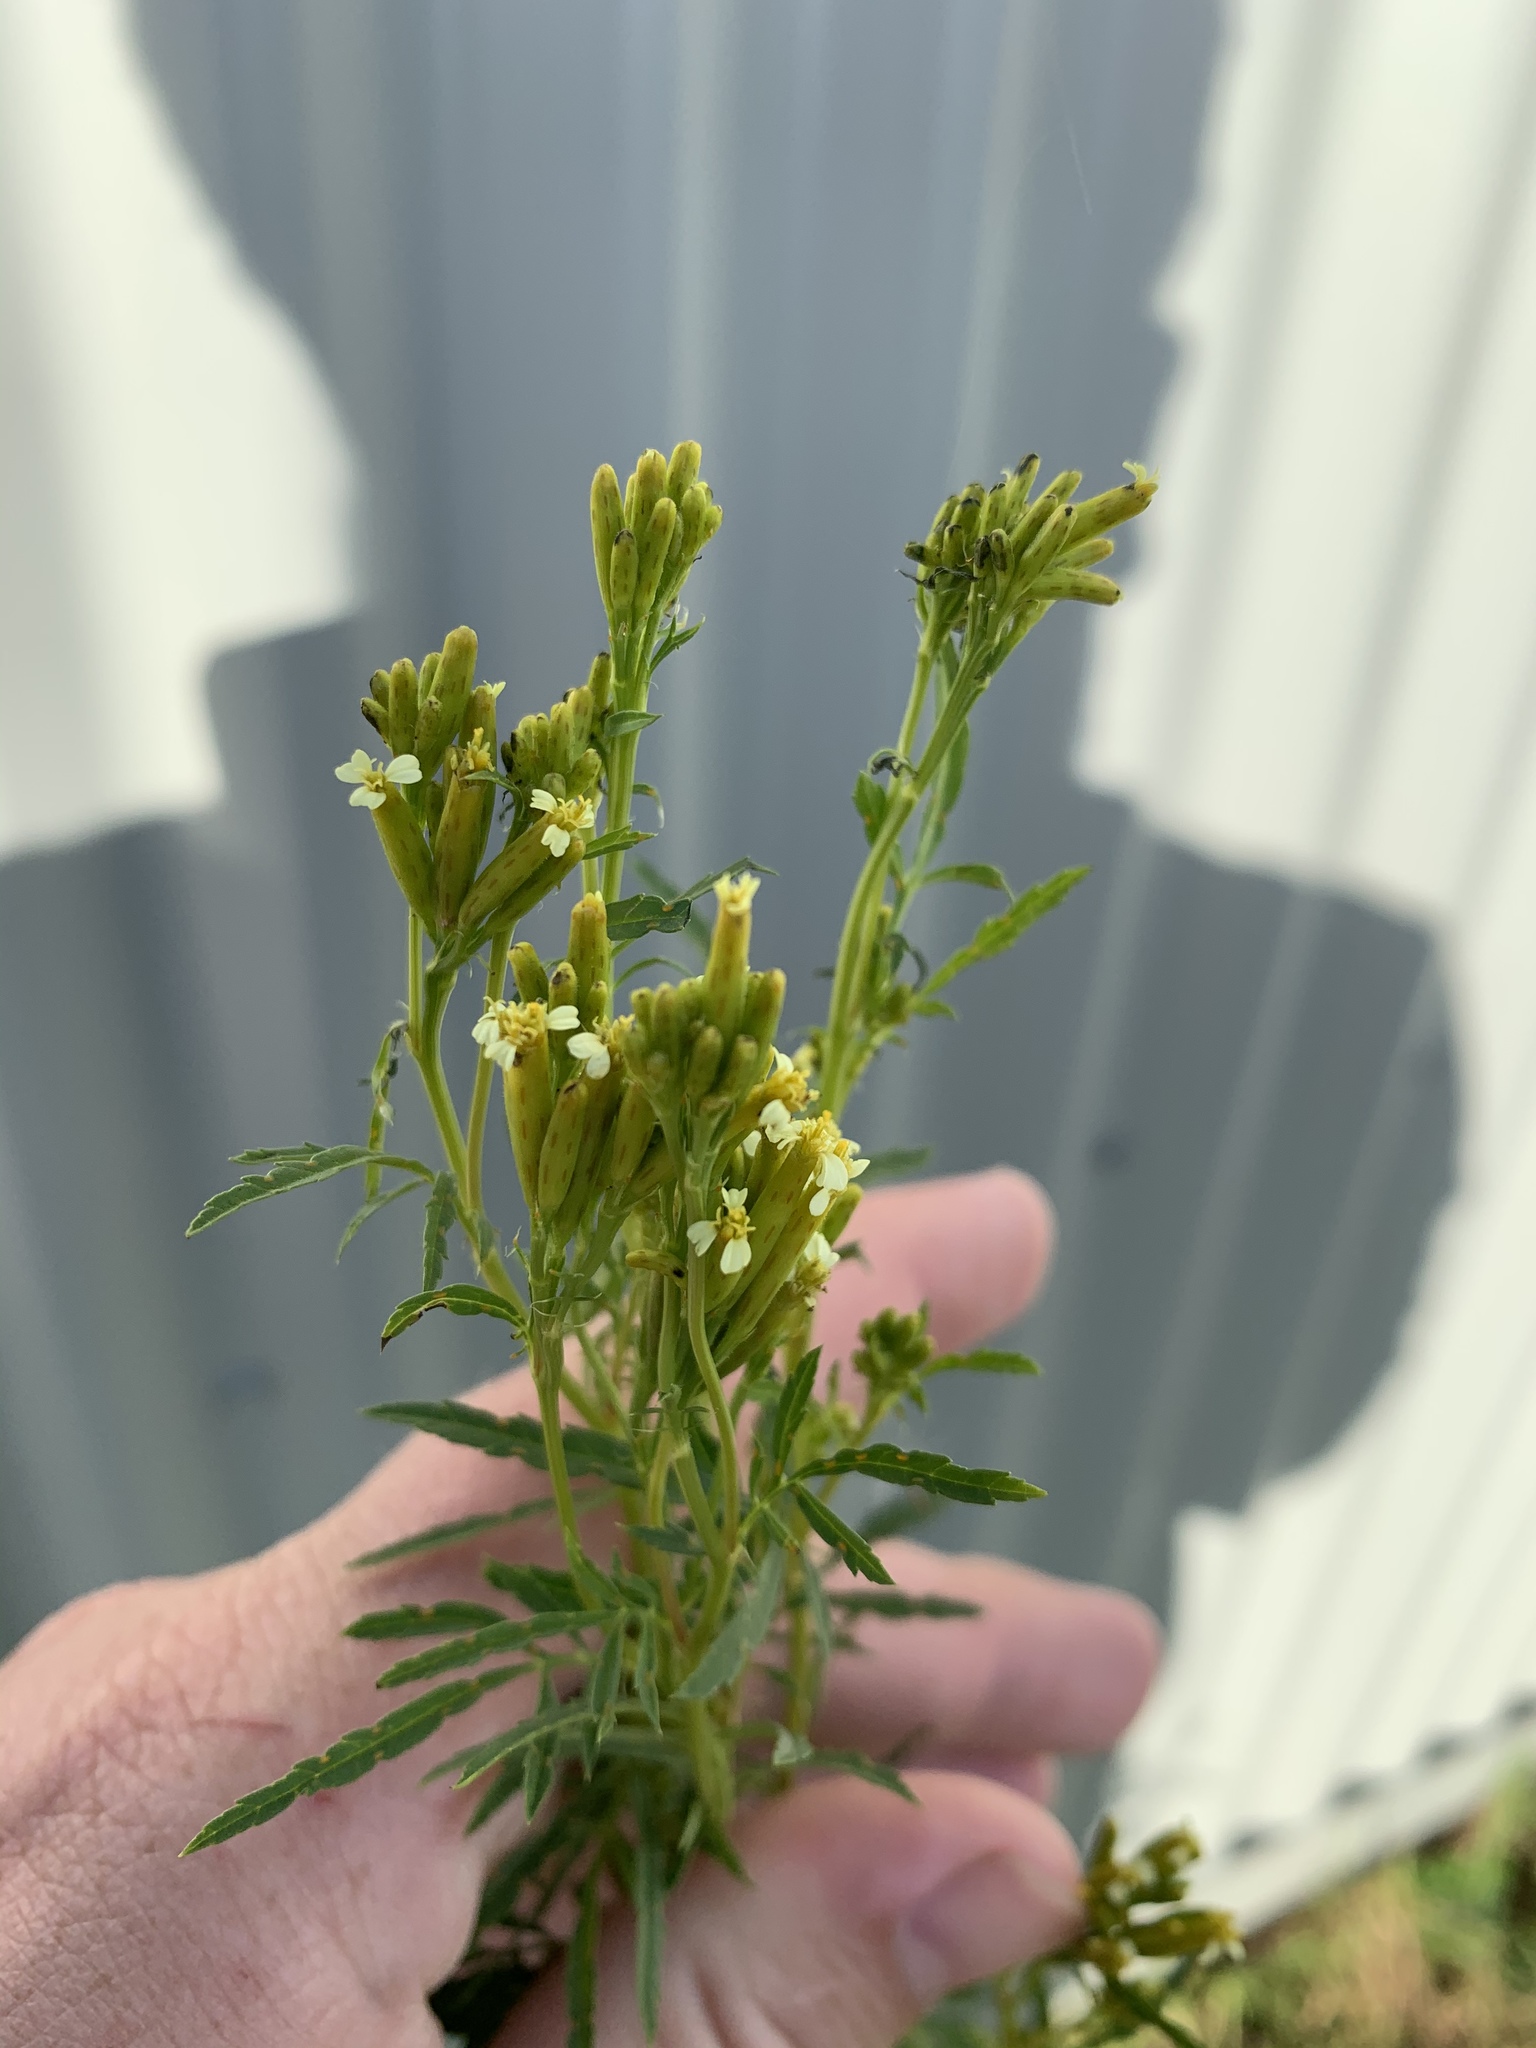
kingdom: Plantae
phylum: Tracheophyta
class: Magnoliopsida
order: Asterales
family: Asteraceae
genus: Tagetes
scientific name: Tagetes minuta
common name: Muster john henry
